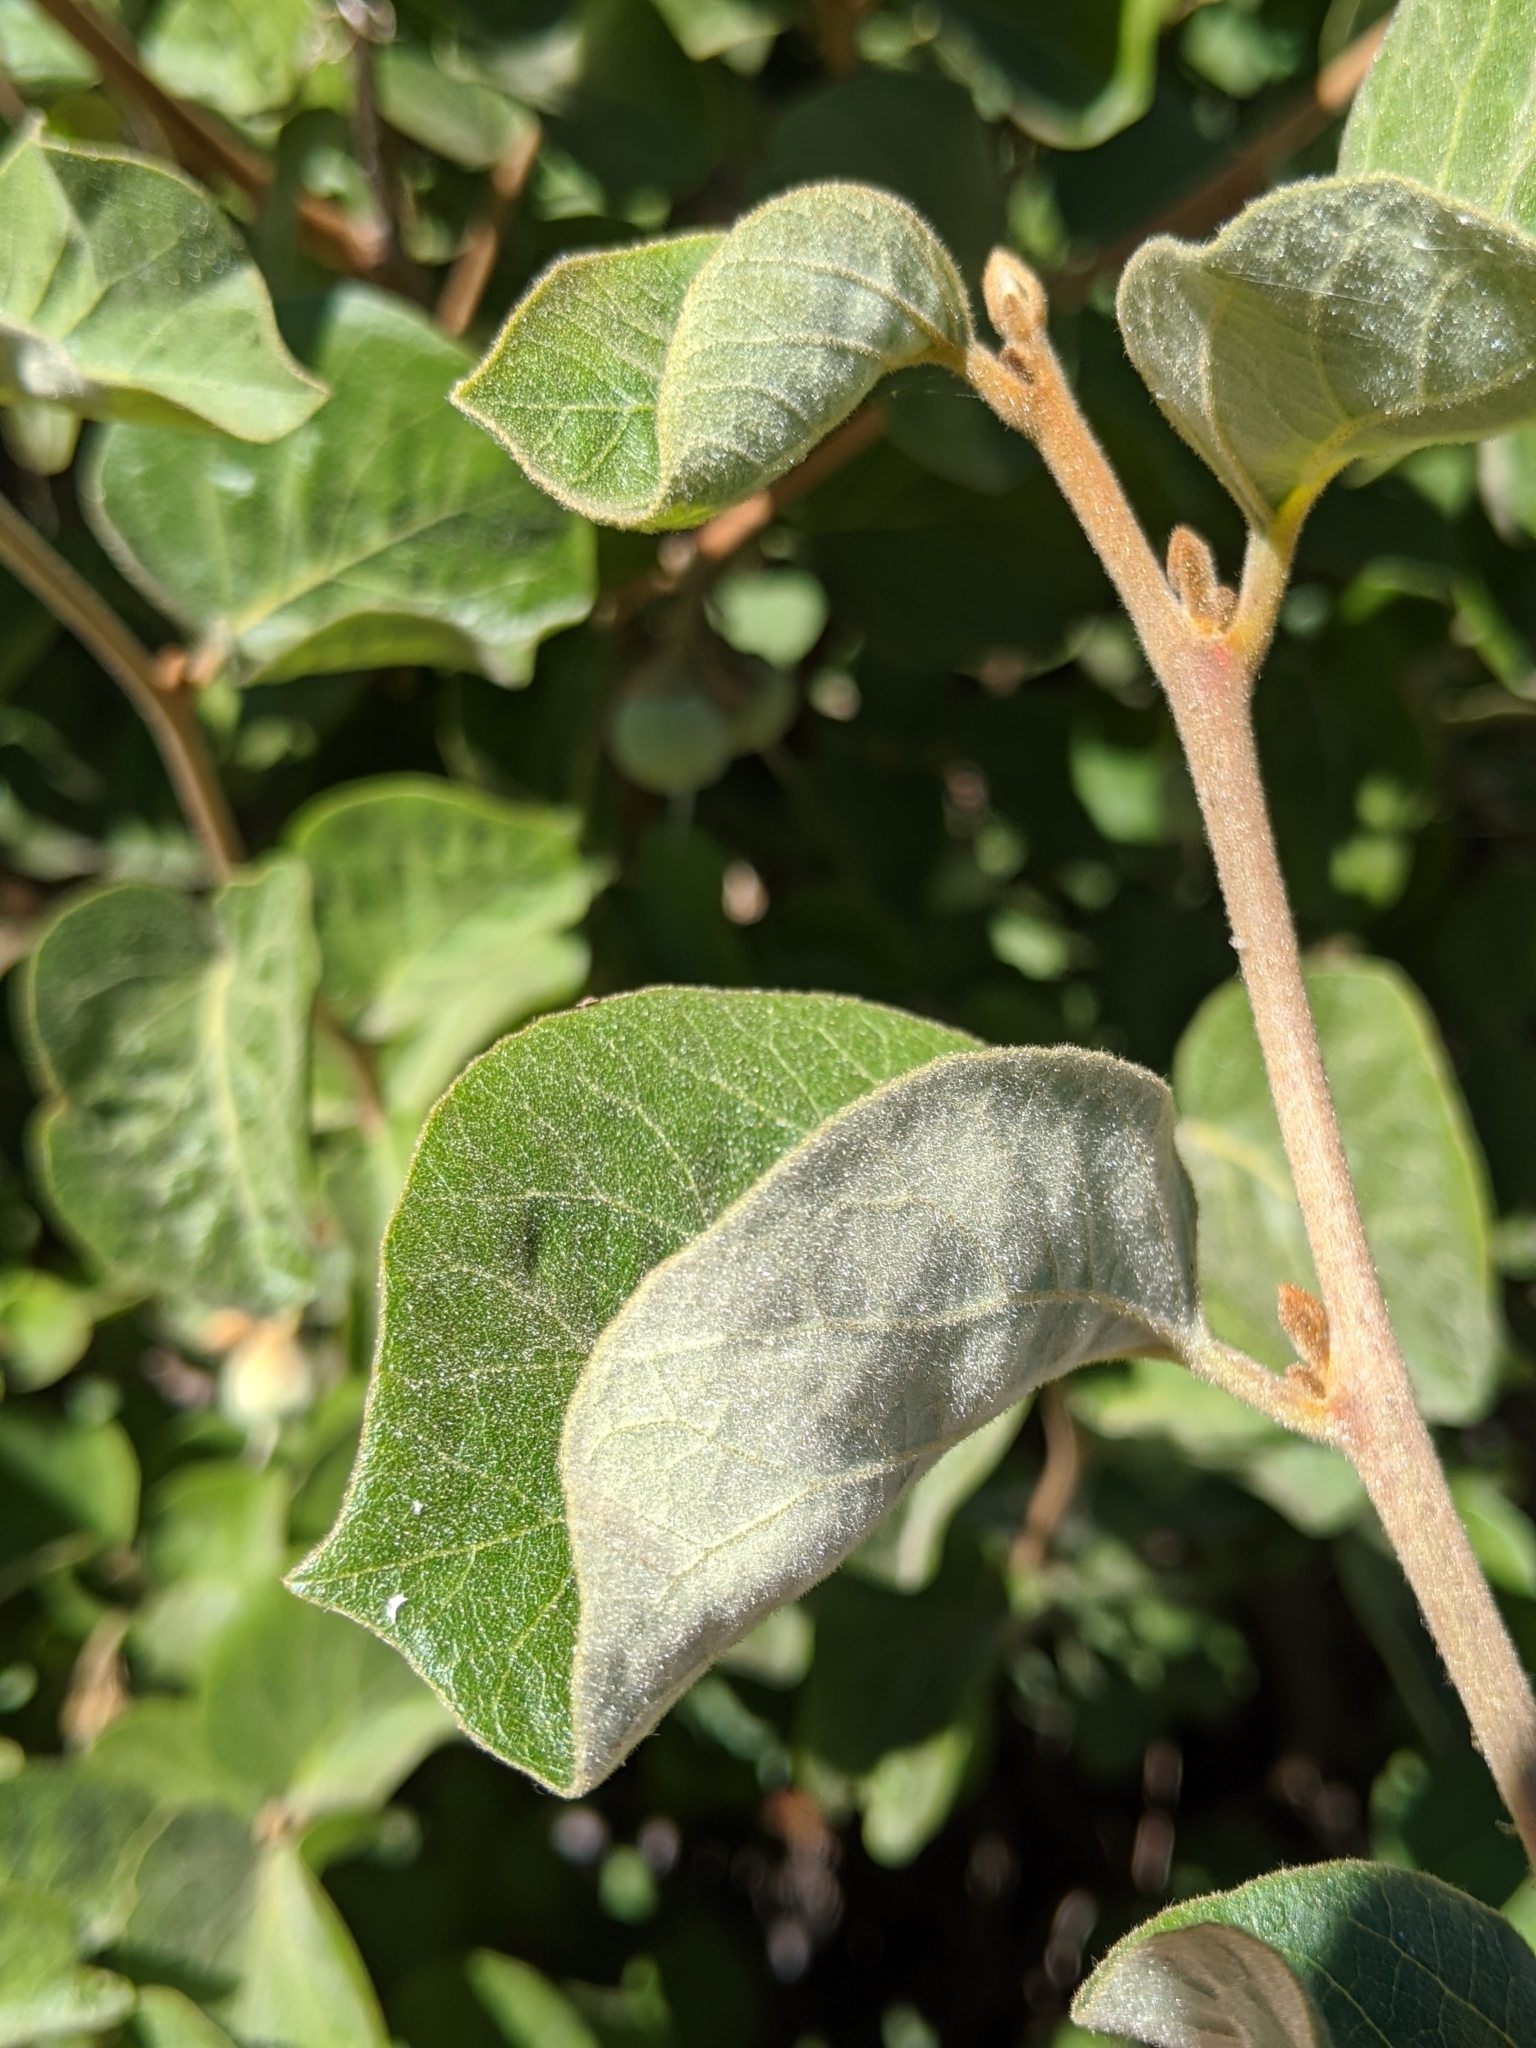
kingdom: Plantae
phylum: Tracheophyta
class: Magnoliopsida
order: Ericales
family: Styracaceae
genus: Styrax
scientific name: Styrax redivivus
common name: California styrax
